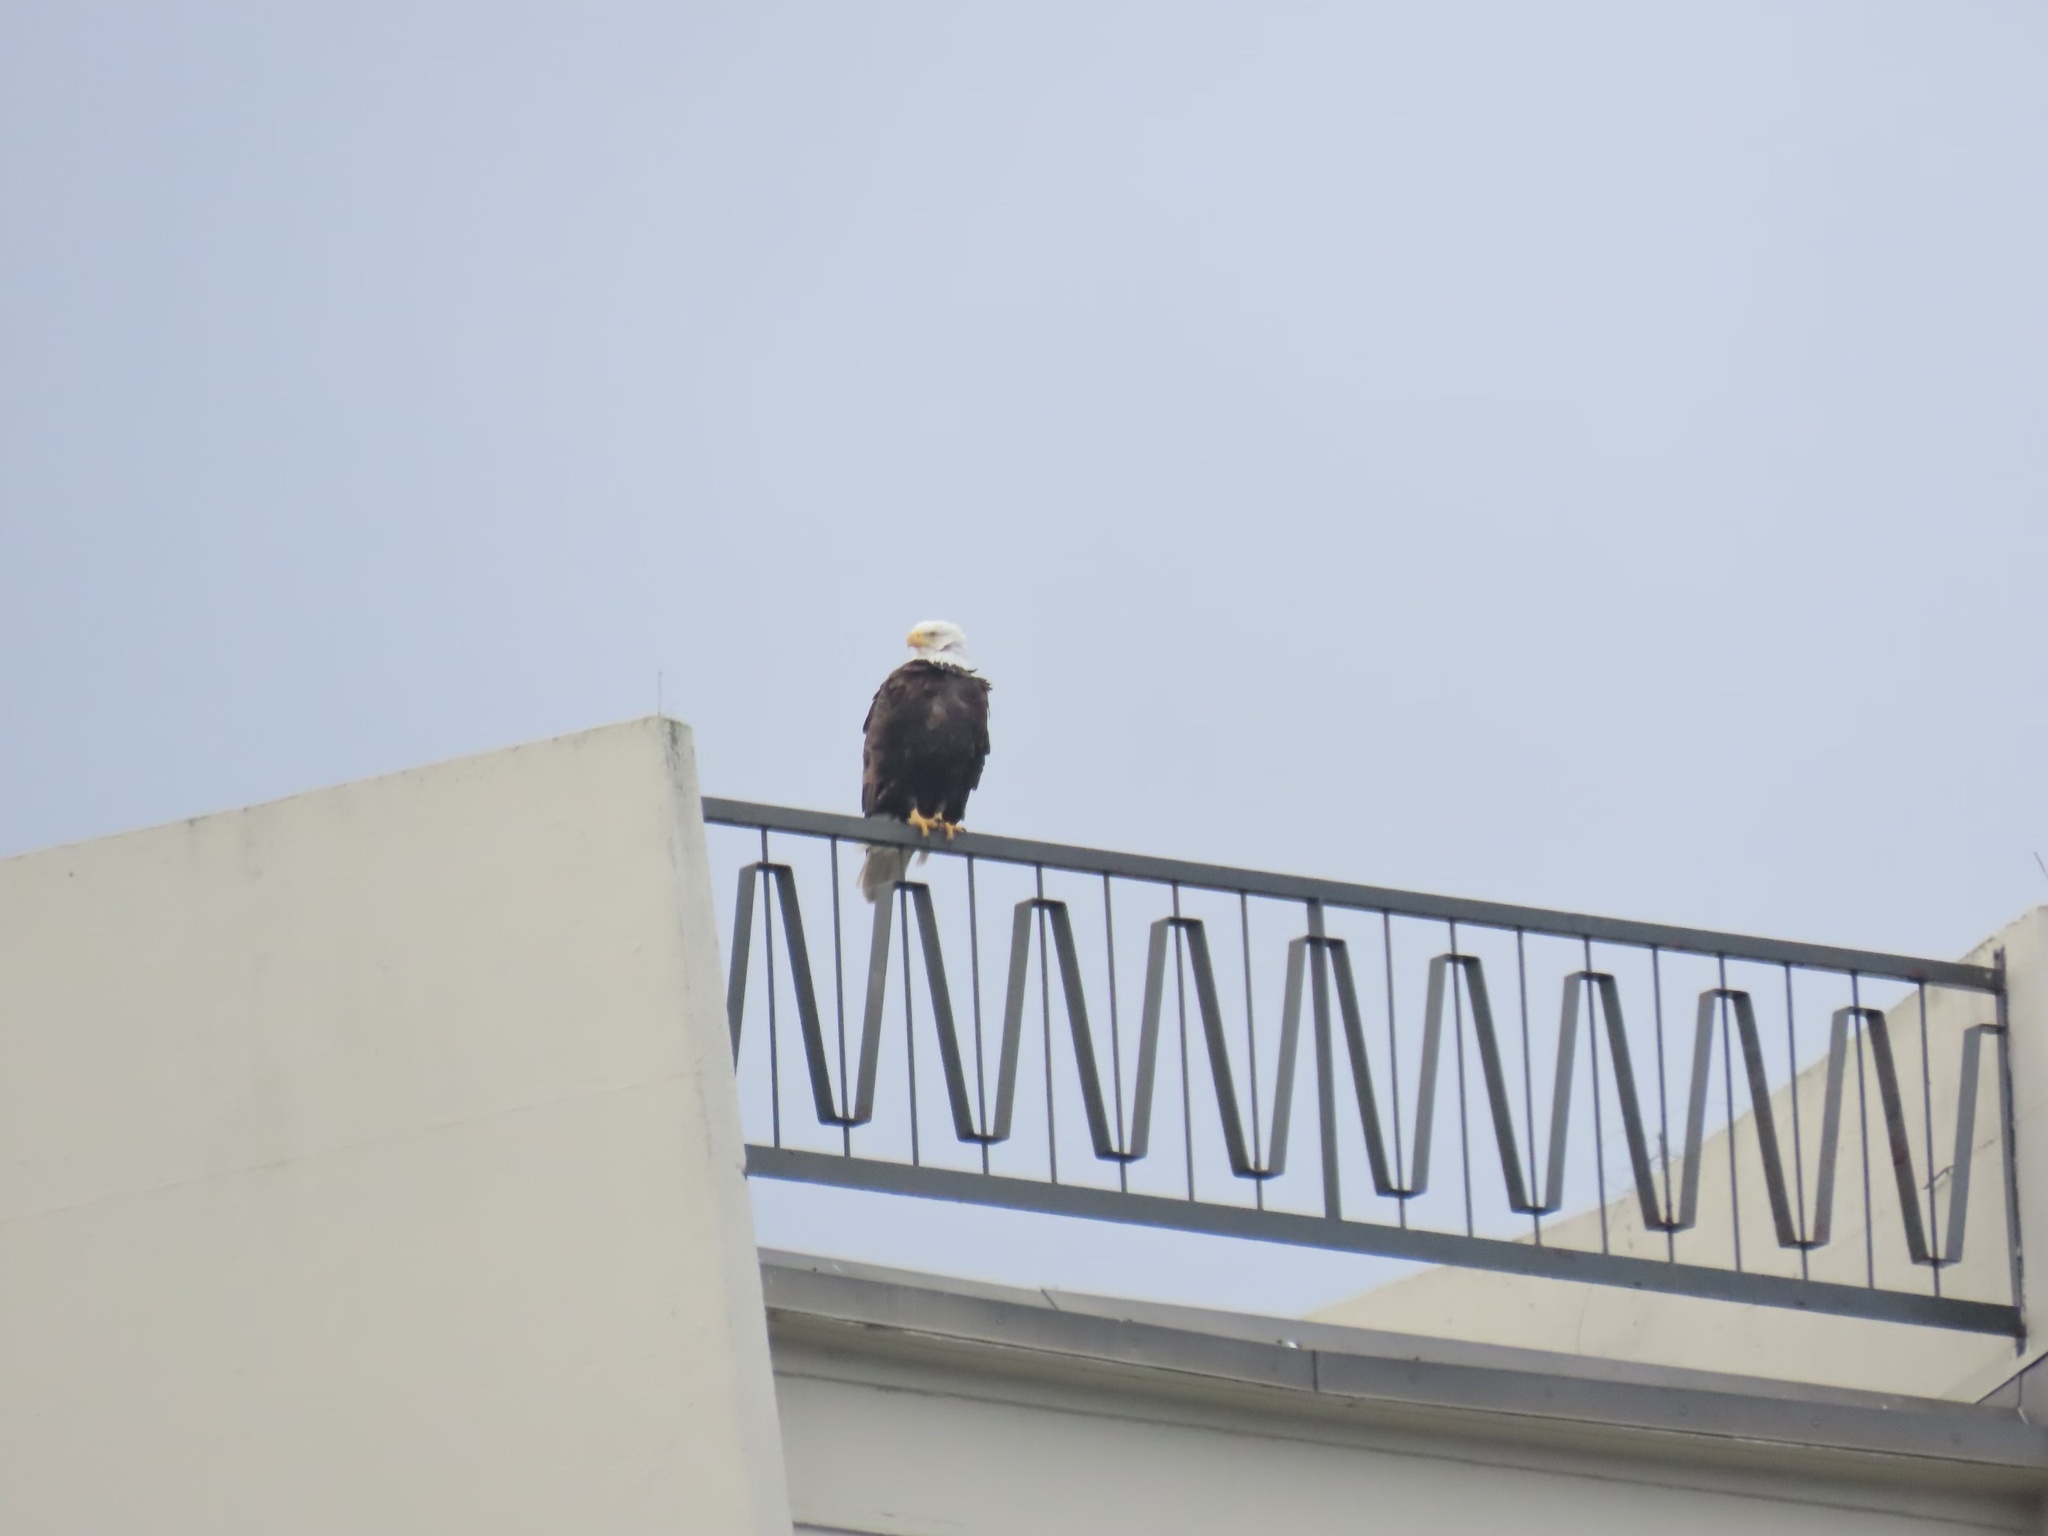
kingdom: Animalia
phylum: Chordata
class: Aves
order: Accipitriformes
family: Accipitridae
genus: Haliaeetus
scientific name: Haliaeetus leucocephalus
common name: Bald eagle
